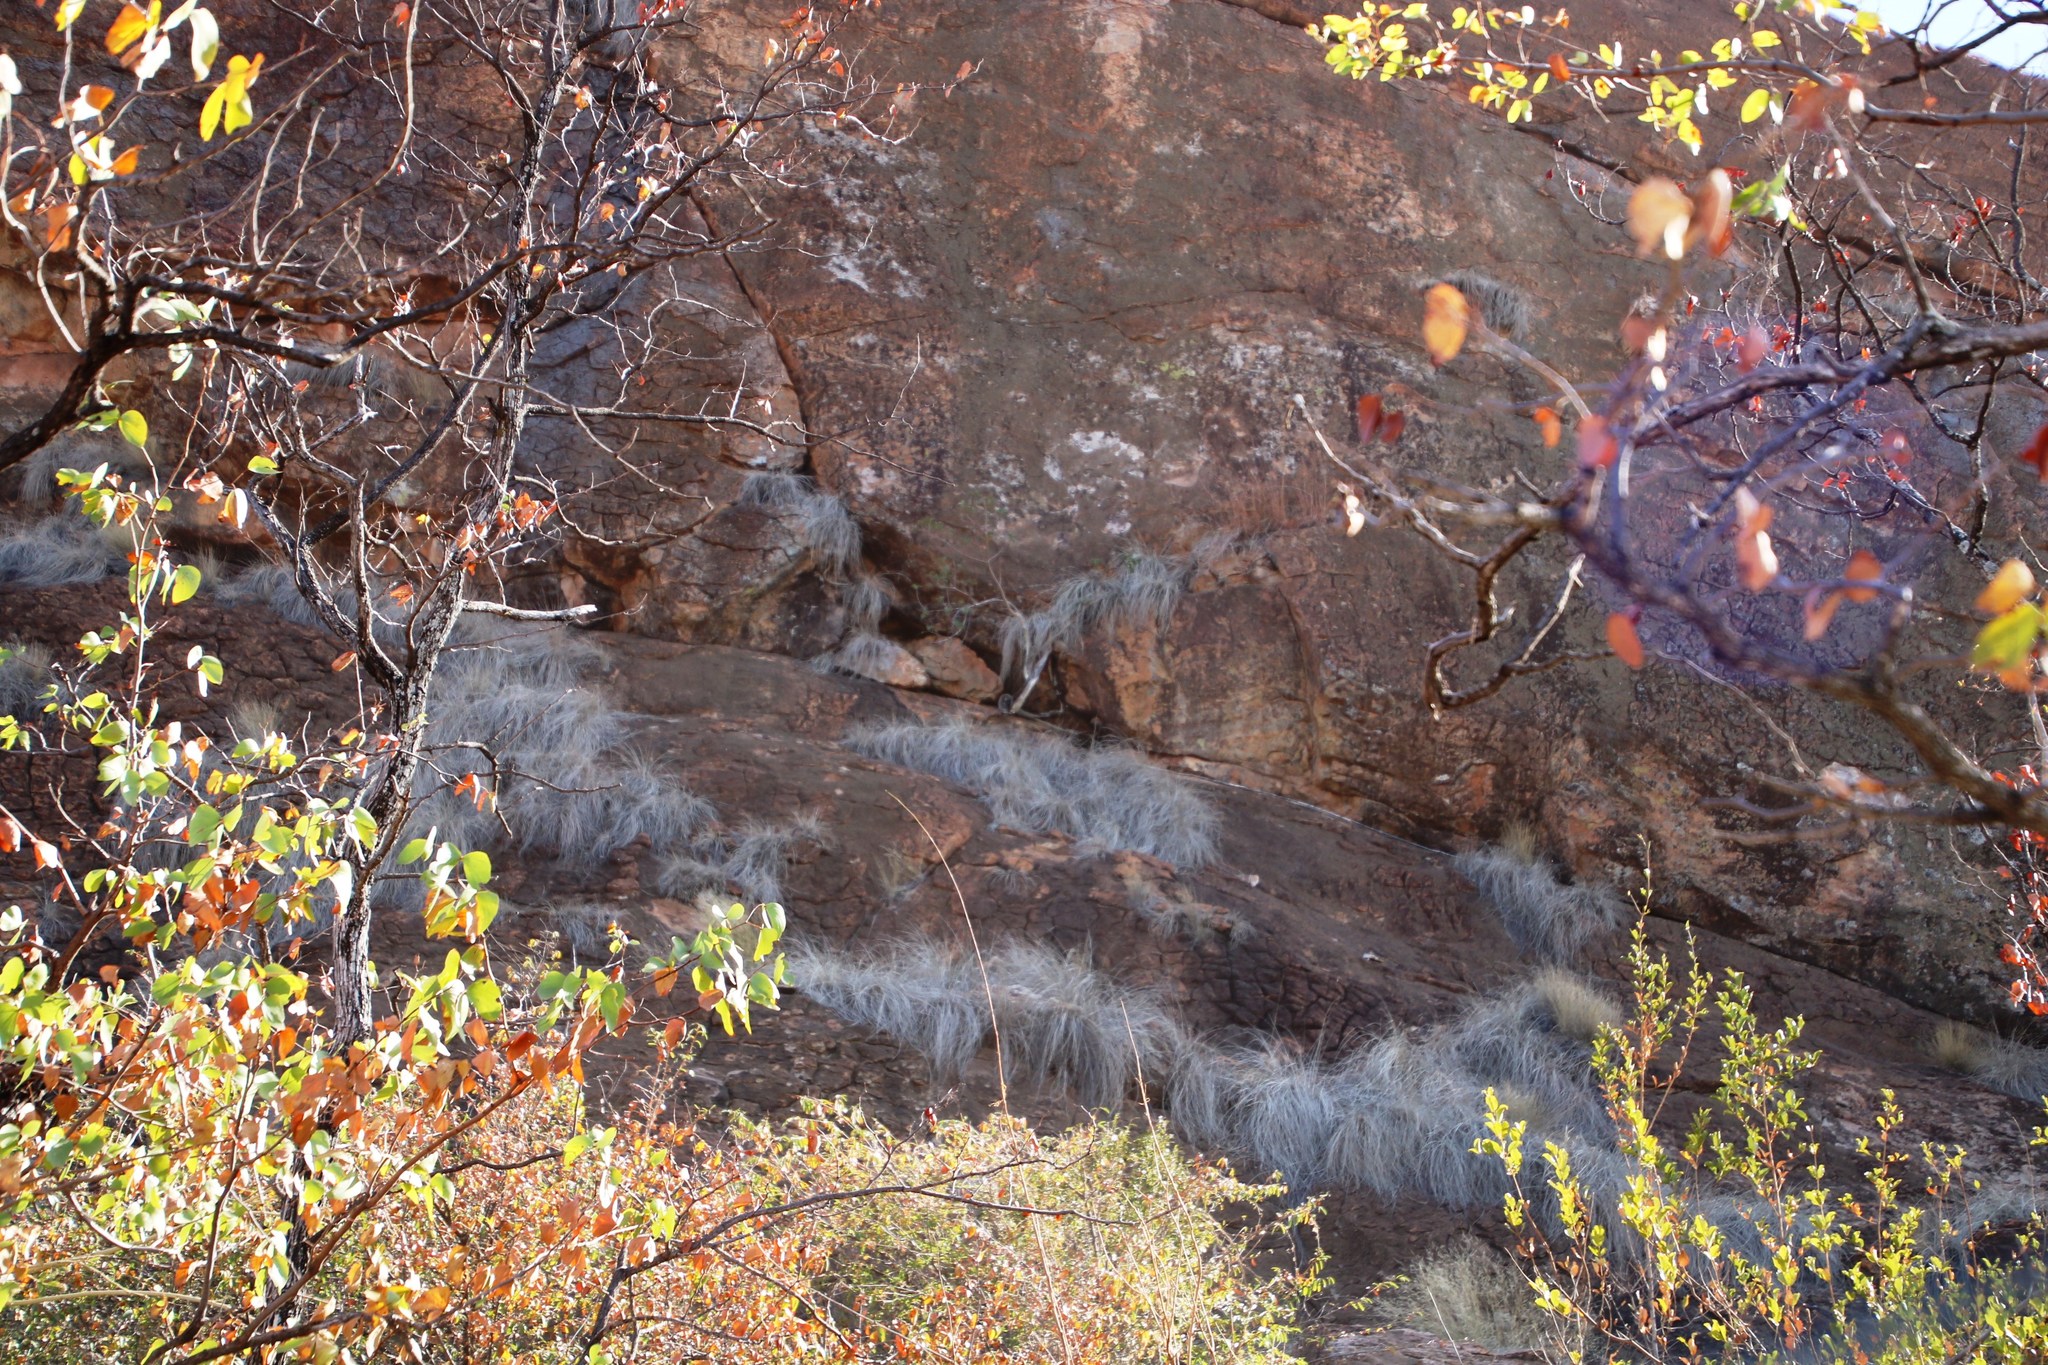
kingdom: Plantae
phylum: Tracheophyta
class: Magnoliopsida
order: Rosales
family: Moraceae
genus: Ficus
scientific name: Ficus abutilifolia
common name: Large-leaved rock fig
